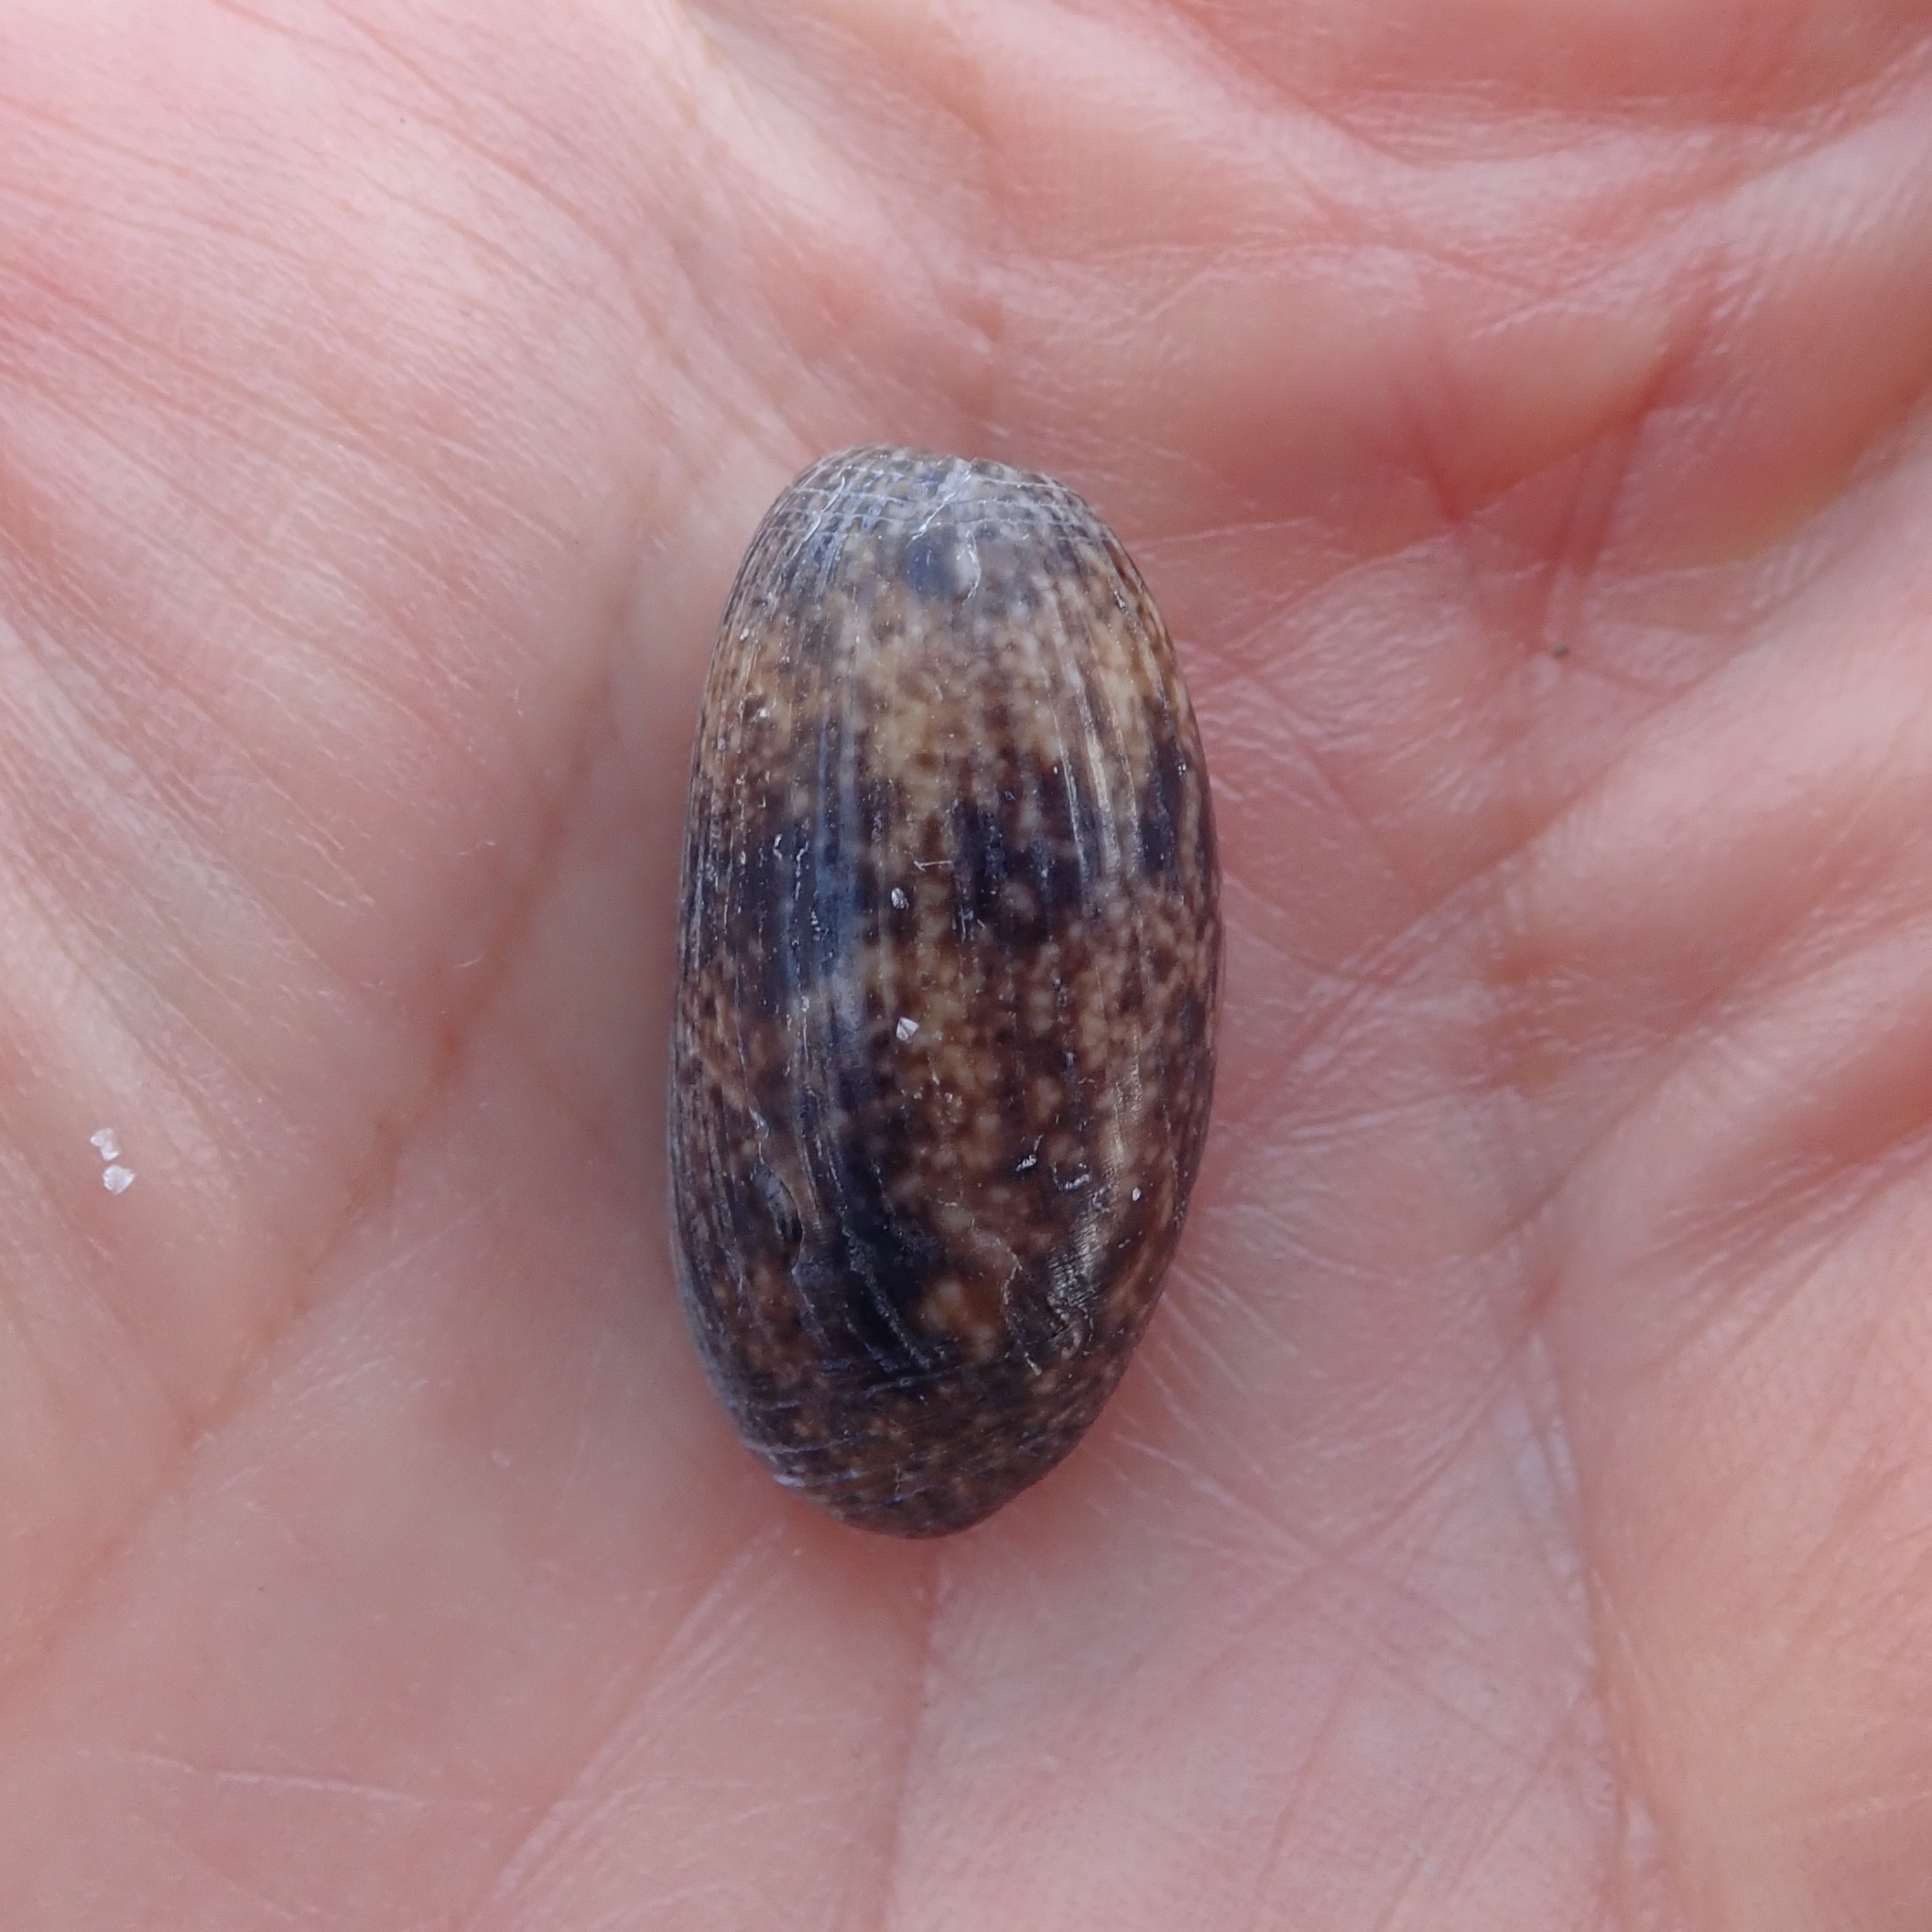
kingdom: Animalia
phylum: Mollusca
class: Gastropoda
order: Cephalaspidea
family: Bullidae
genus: Bulla
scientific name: Bulla striata
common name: Common atlantic bubble
